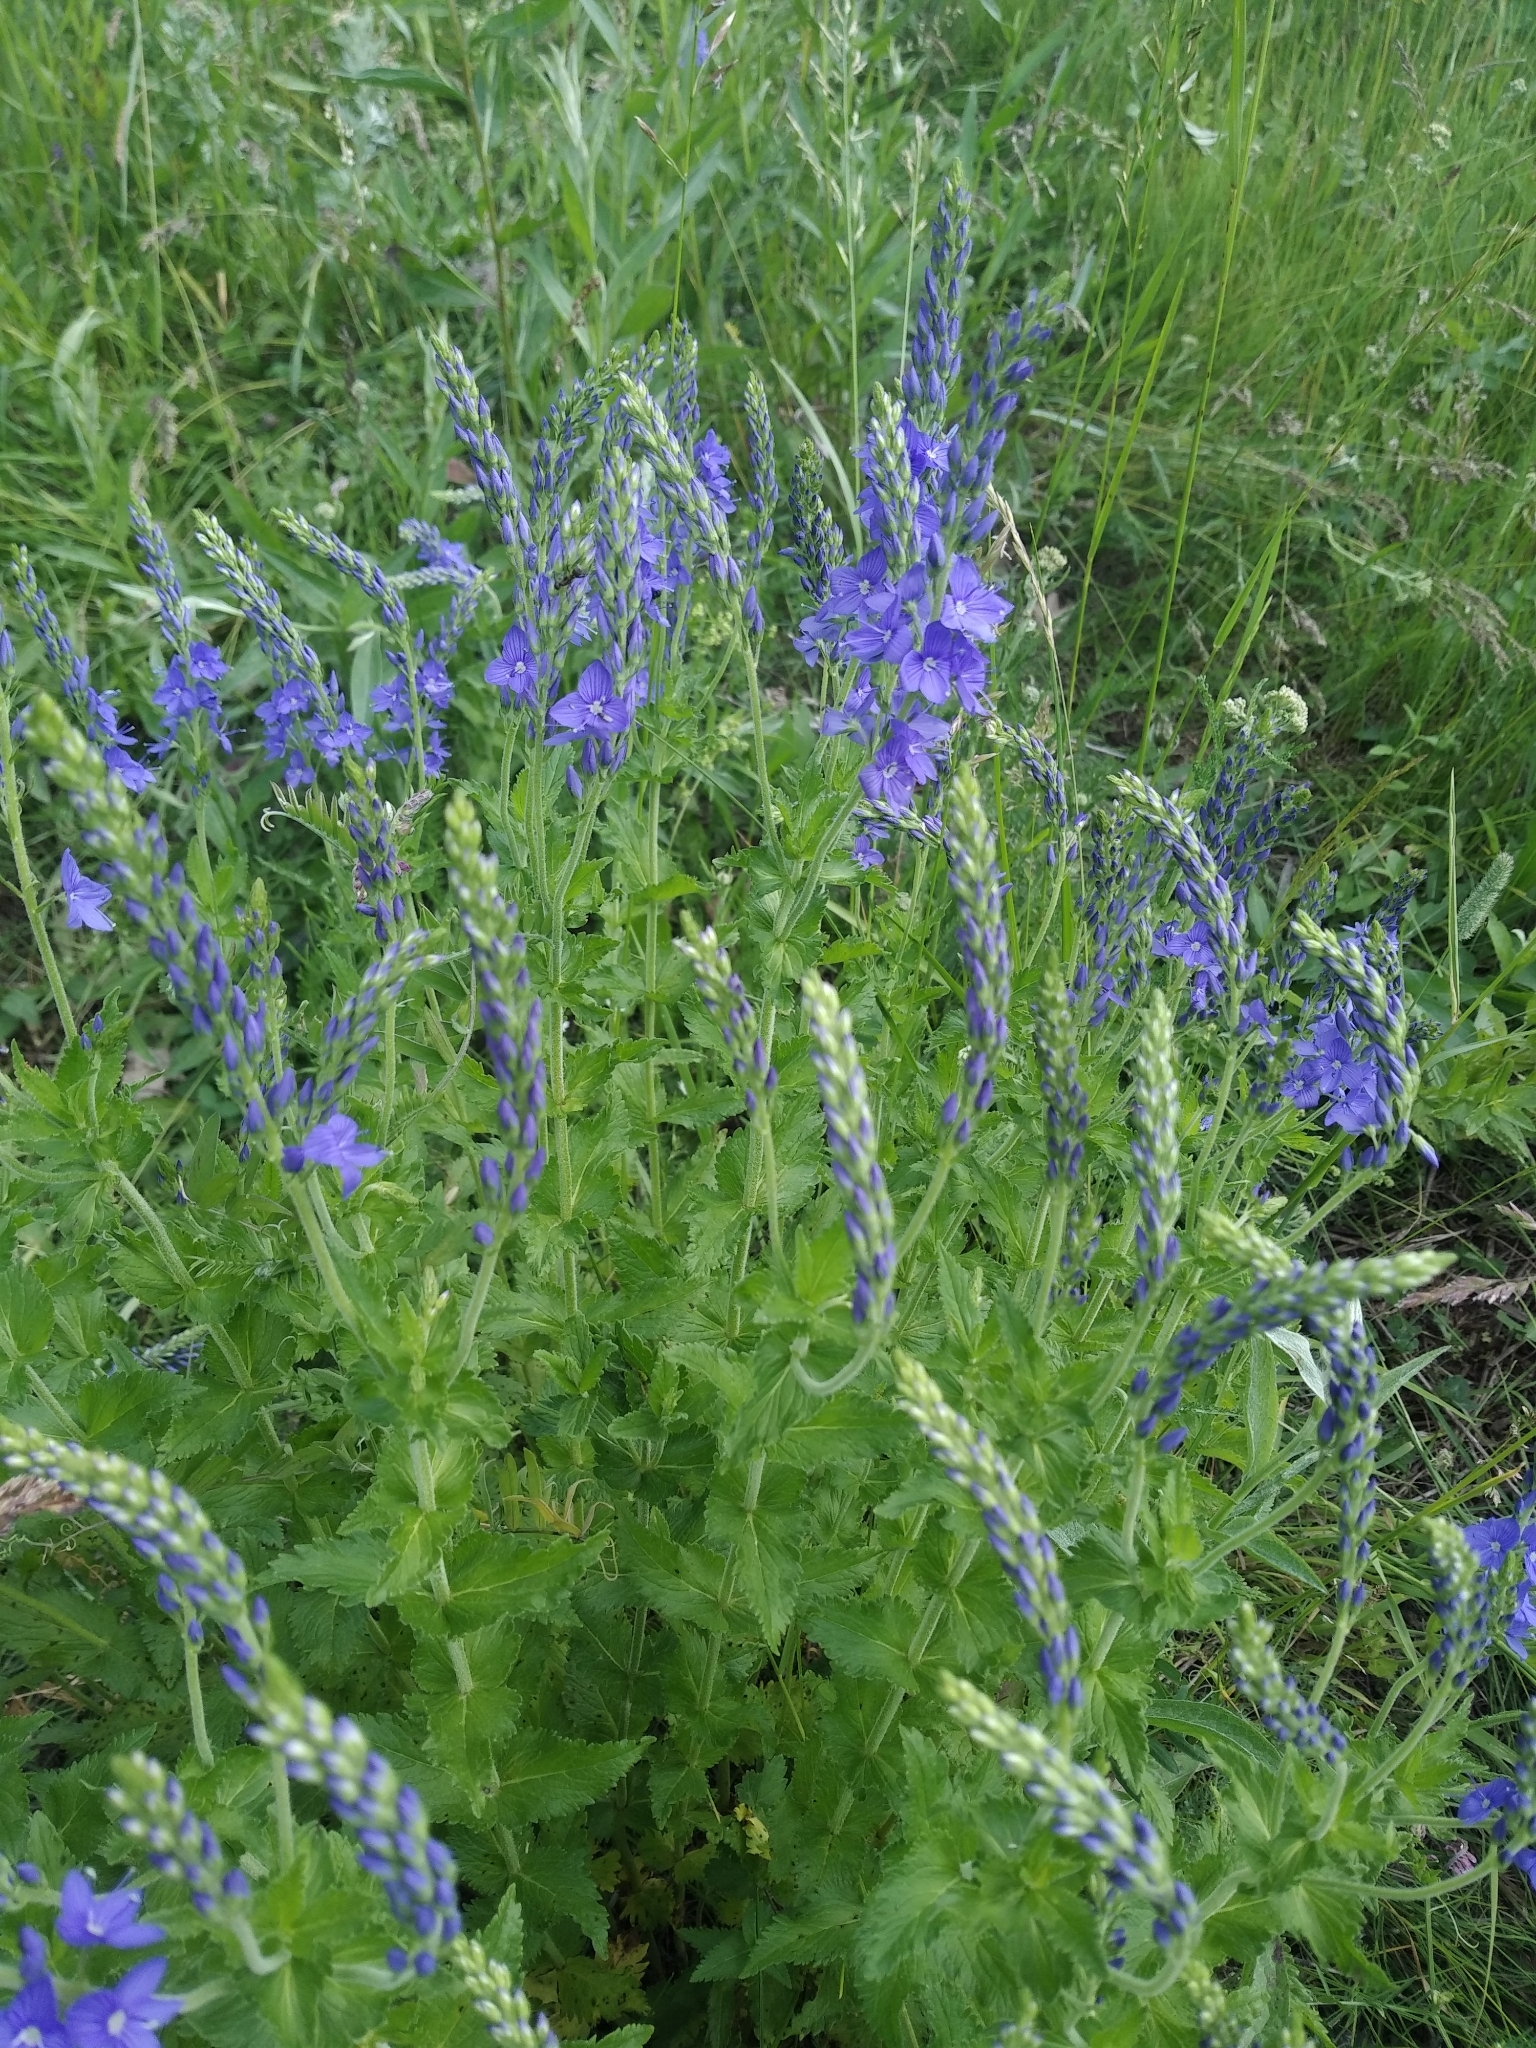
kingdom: Plantae
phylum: Tracheophyta
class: Magnoliopsida
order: Lamiales
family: Plantaginaceae
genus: Veronica
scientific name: Veronica teucrium
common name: Large speedwell
